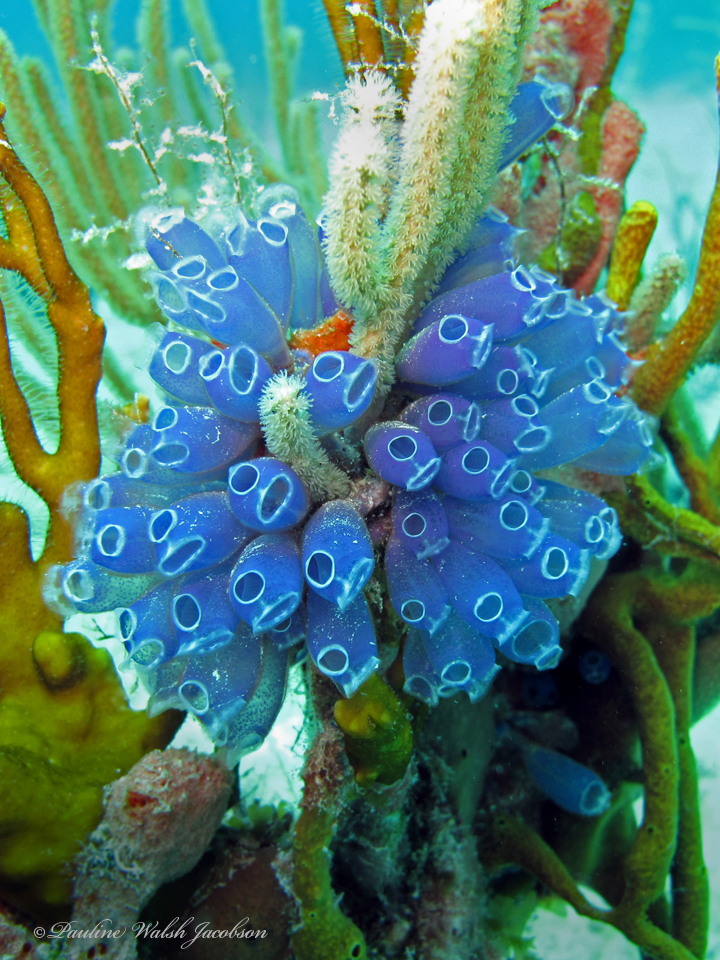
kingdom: Animalia
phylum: Chordata
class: Ascidiacea
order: Aplousobranchia
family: Clavelinidae
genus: Clavelina
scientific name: Clavelina puertosecensis
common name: Blue bell tunicate
